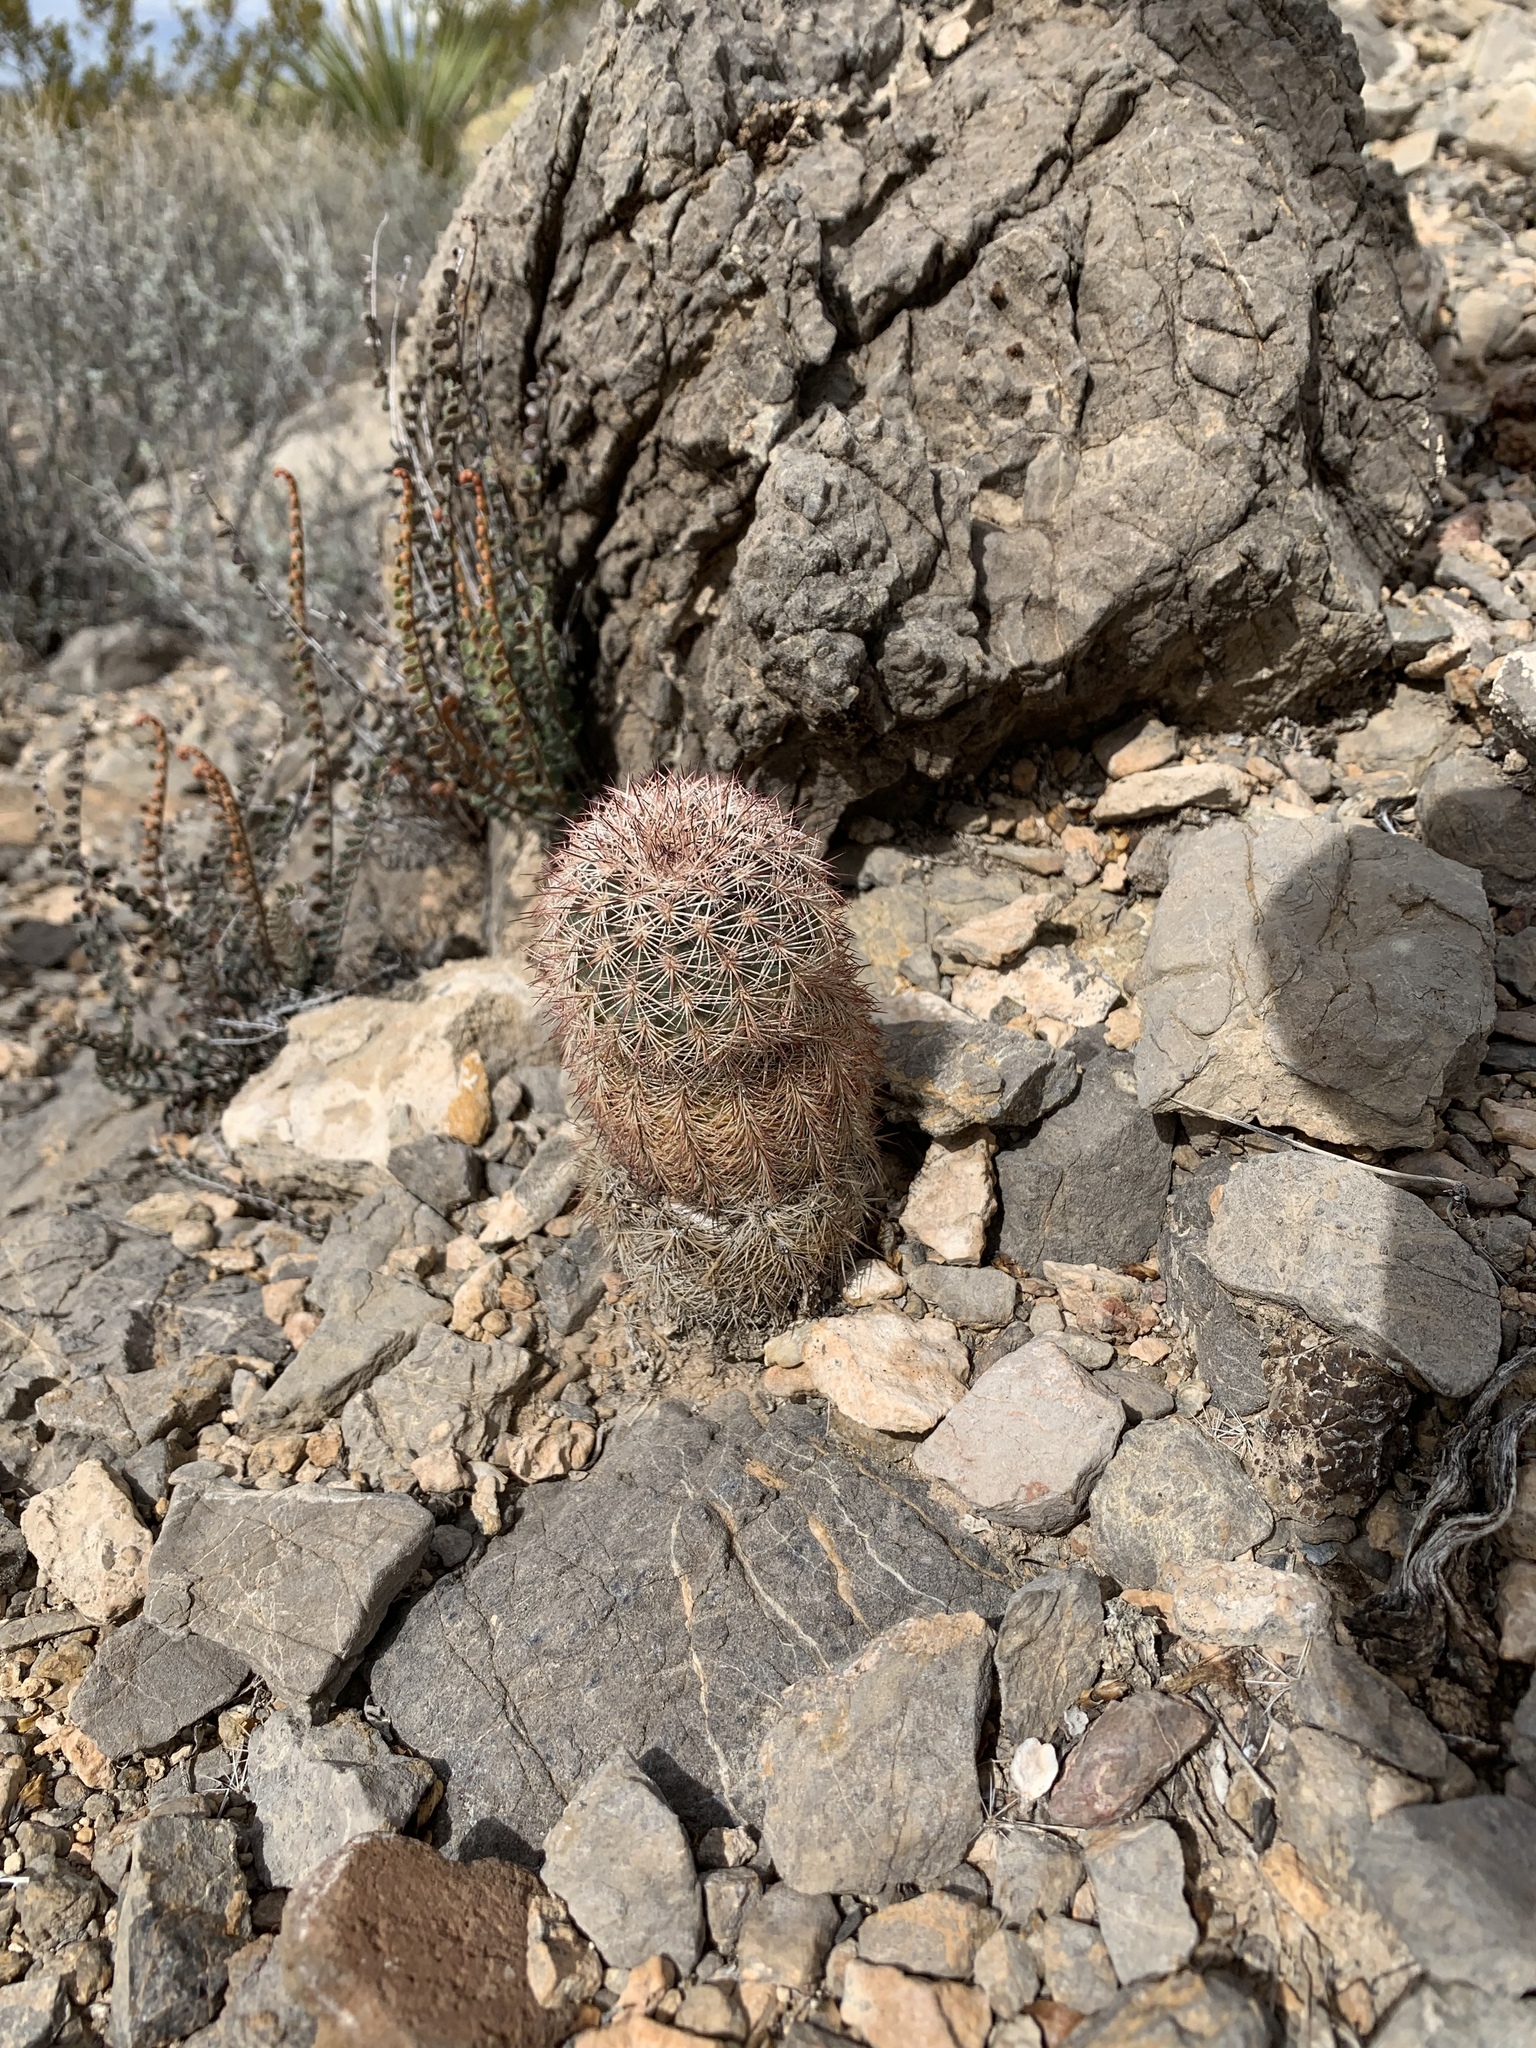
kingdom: Plantae
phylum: Tracheophyta
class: Magnoliopsida
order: Caryophyllales
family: Cactaceae
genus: Echinocereus
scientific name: Echinocereus dasyacanthus
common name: Spiny hedgehog cactus
